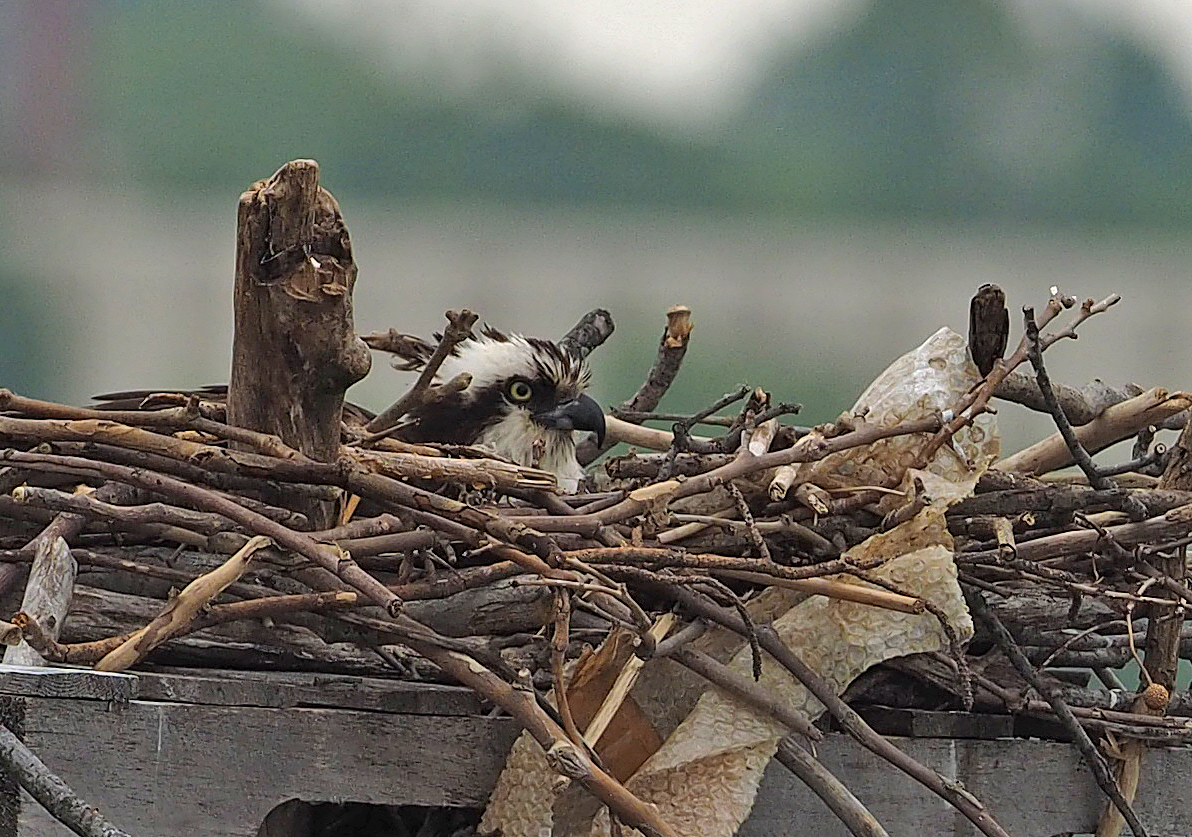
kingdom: Animalia
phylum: Chordata
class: Aves
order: Accipitriformes
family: Pandionidae
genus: Pandion
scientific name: Pandion haliaetus
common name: Osprey
